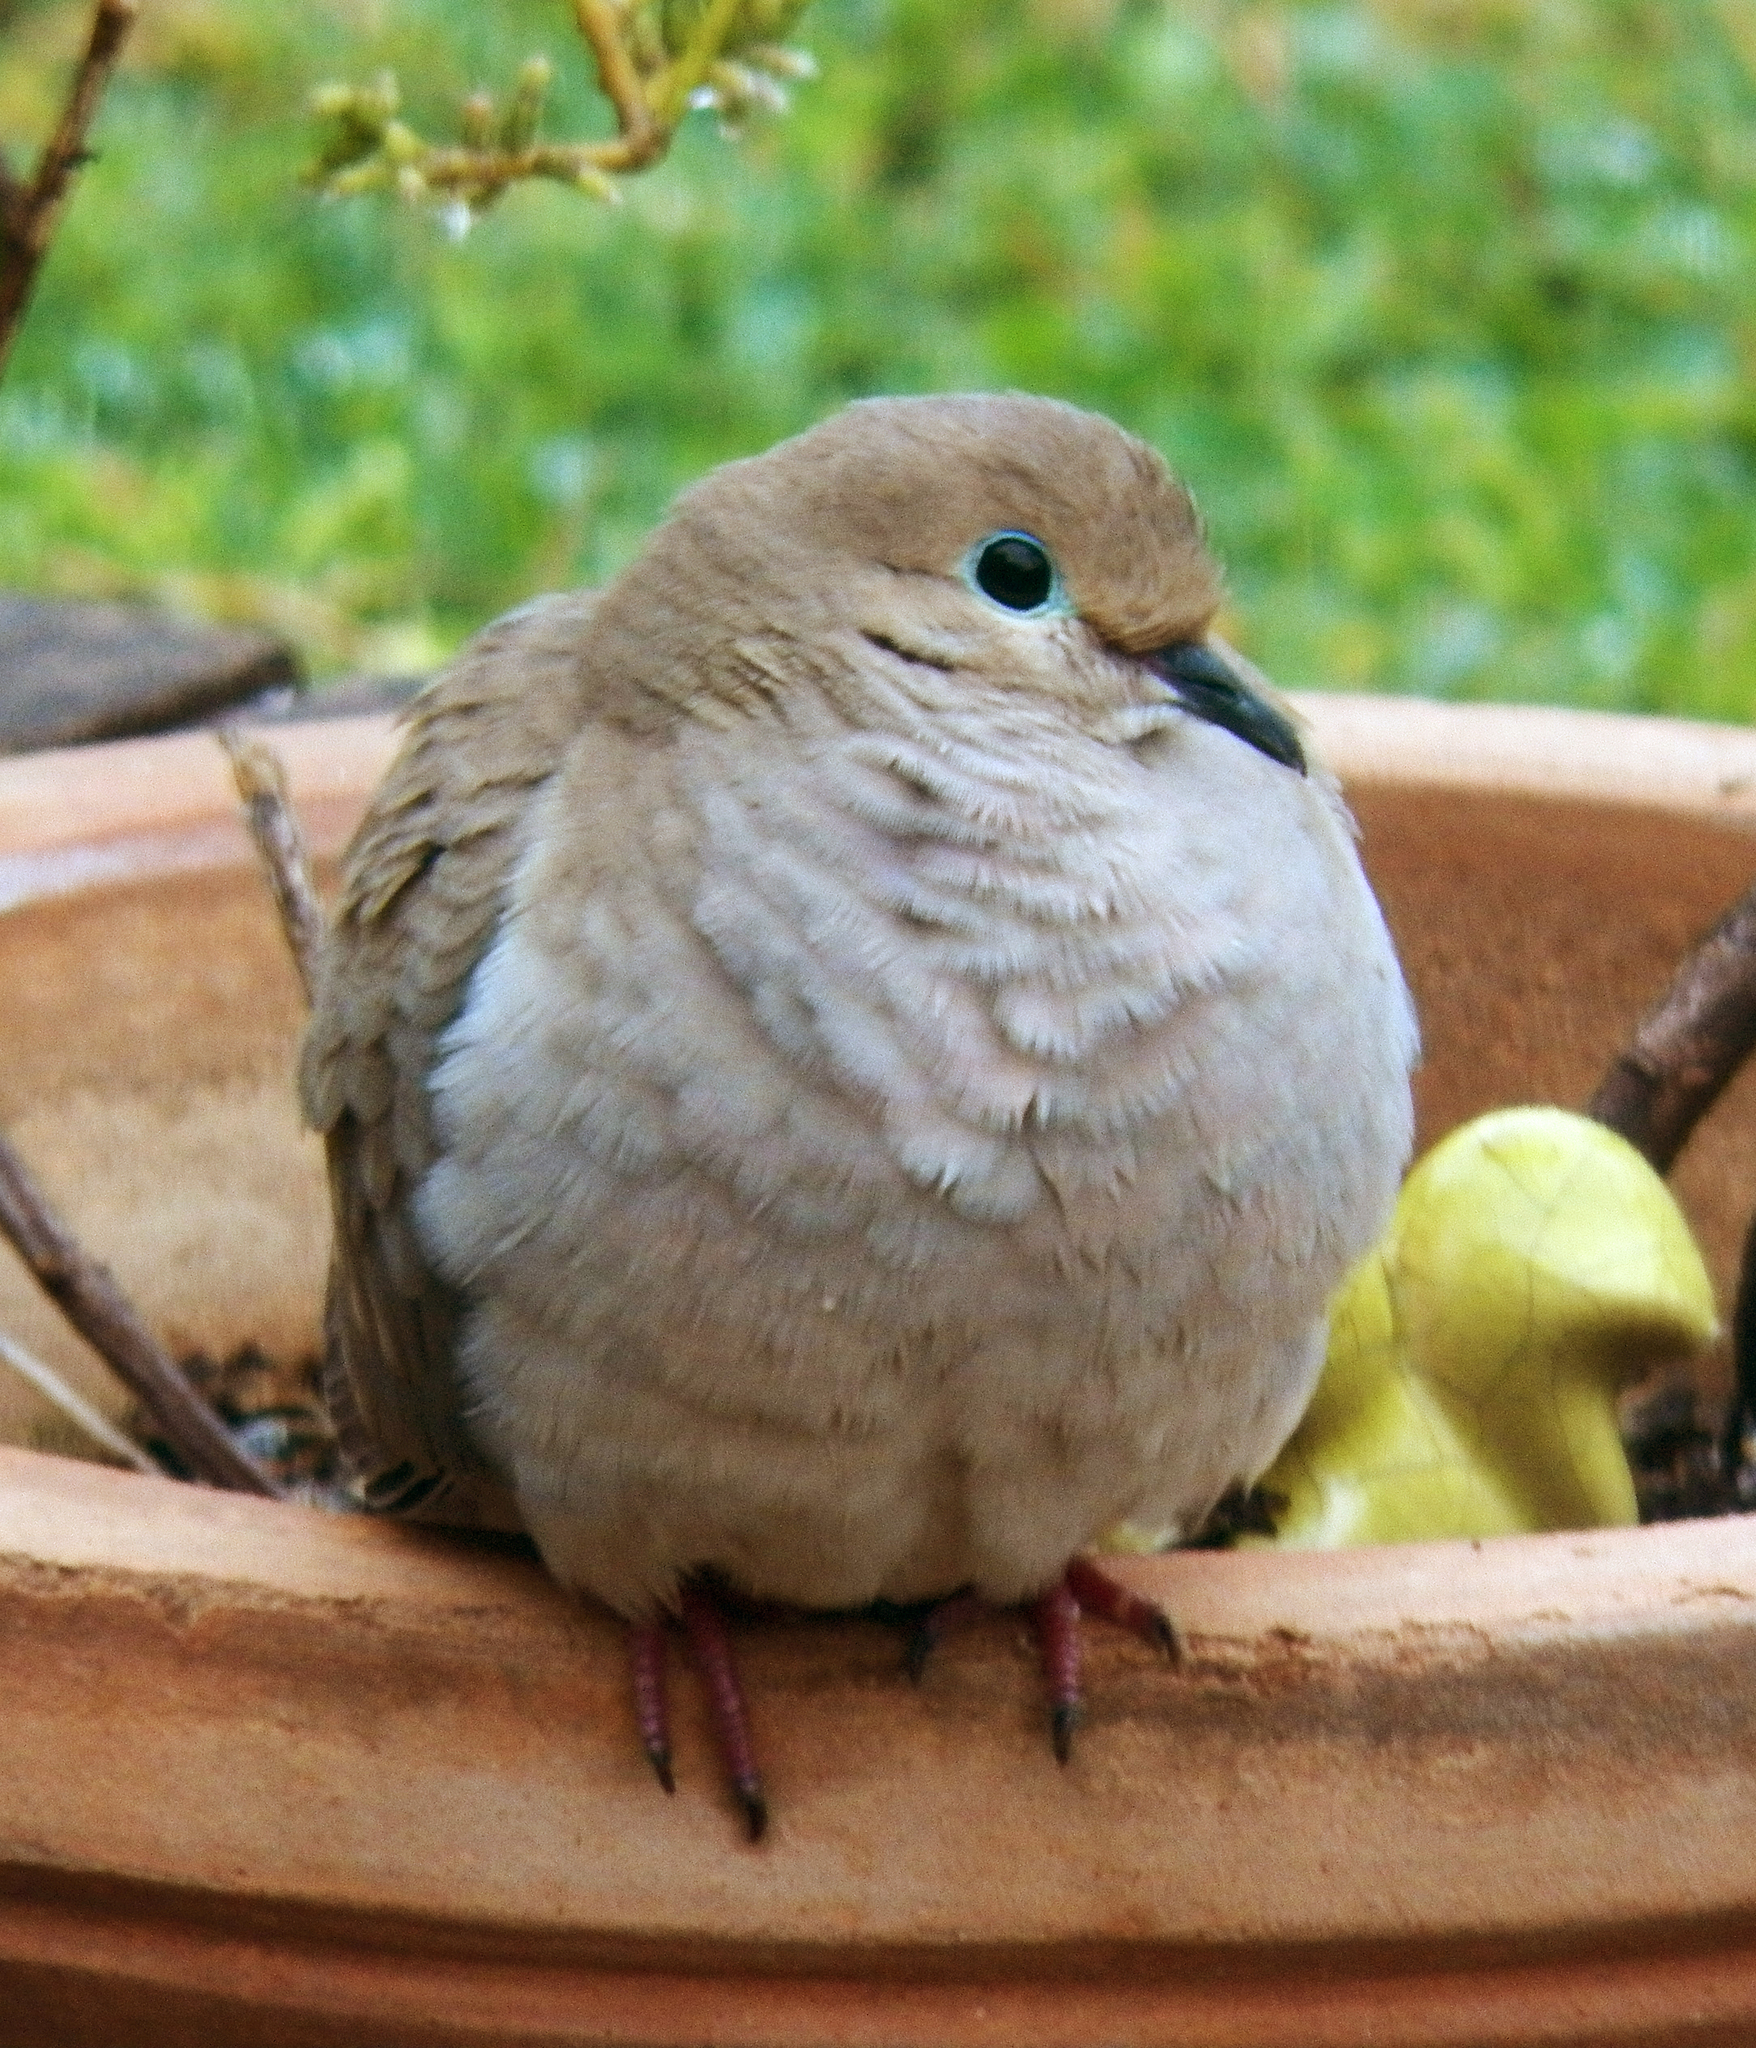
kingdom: Animalia
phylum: Chordata
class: Aves
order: Columbiformes
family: Columbidae
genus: Zenaida
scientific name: Zenaida macroura
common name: Mourning dove
